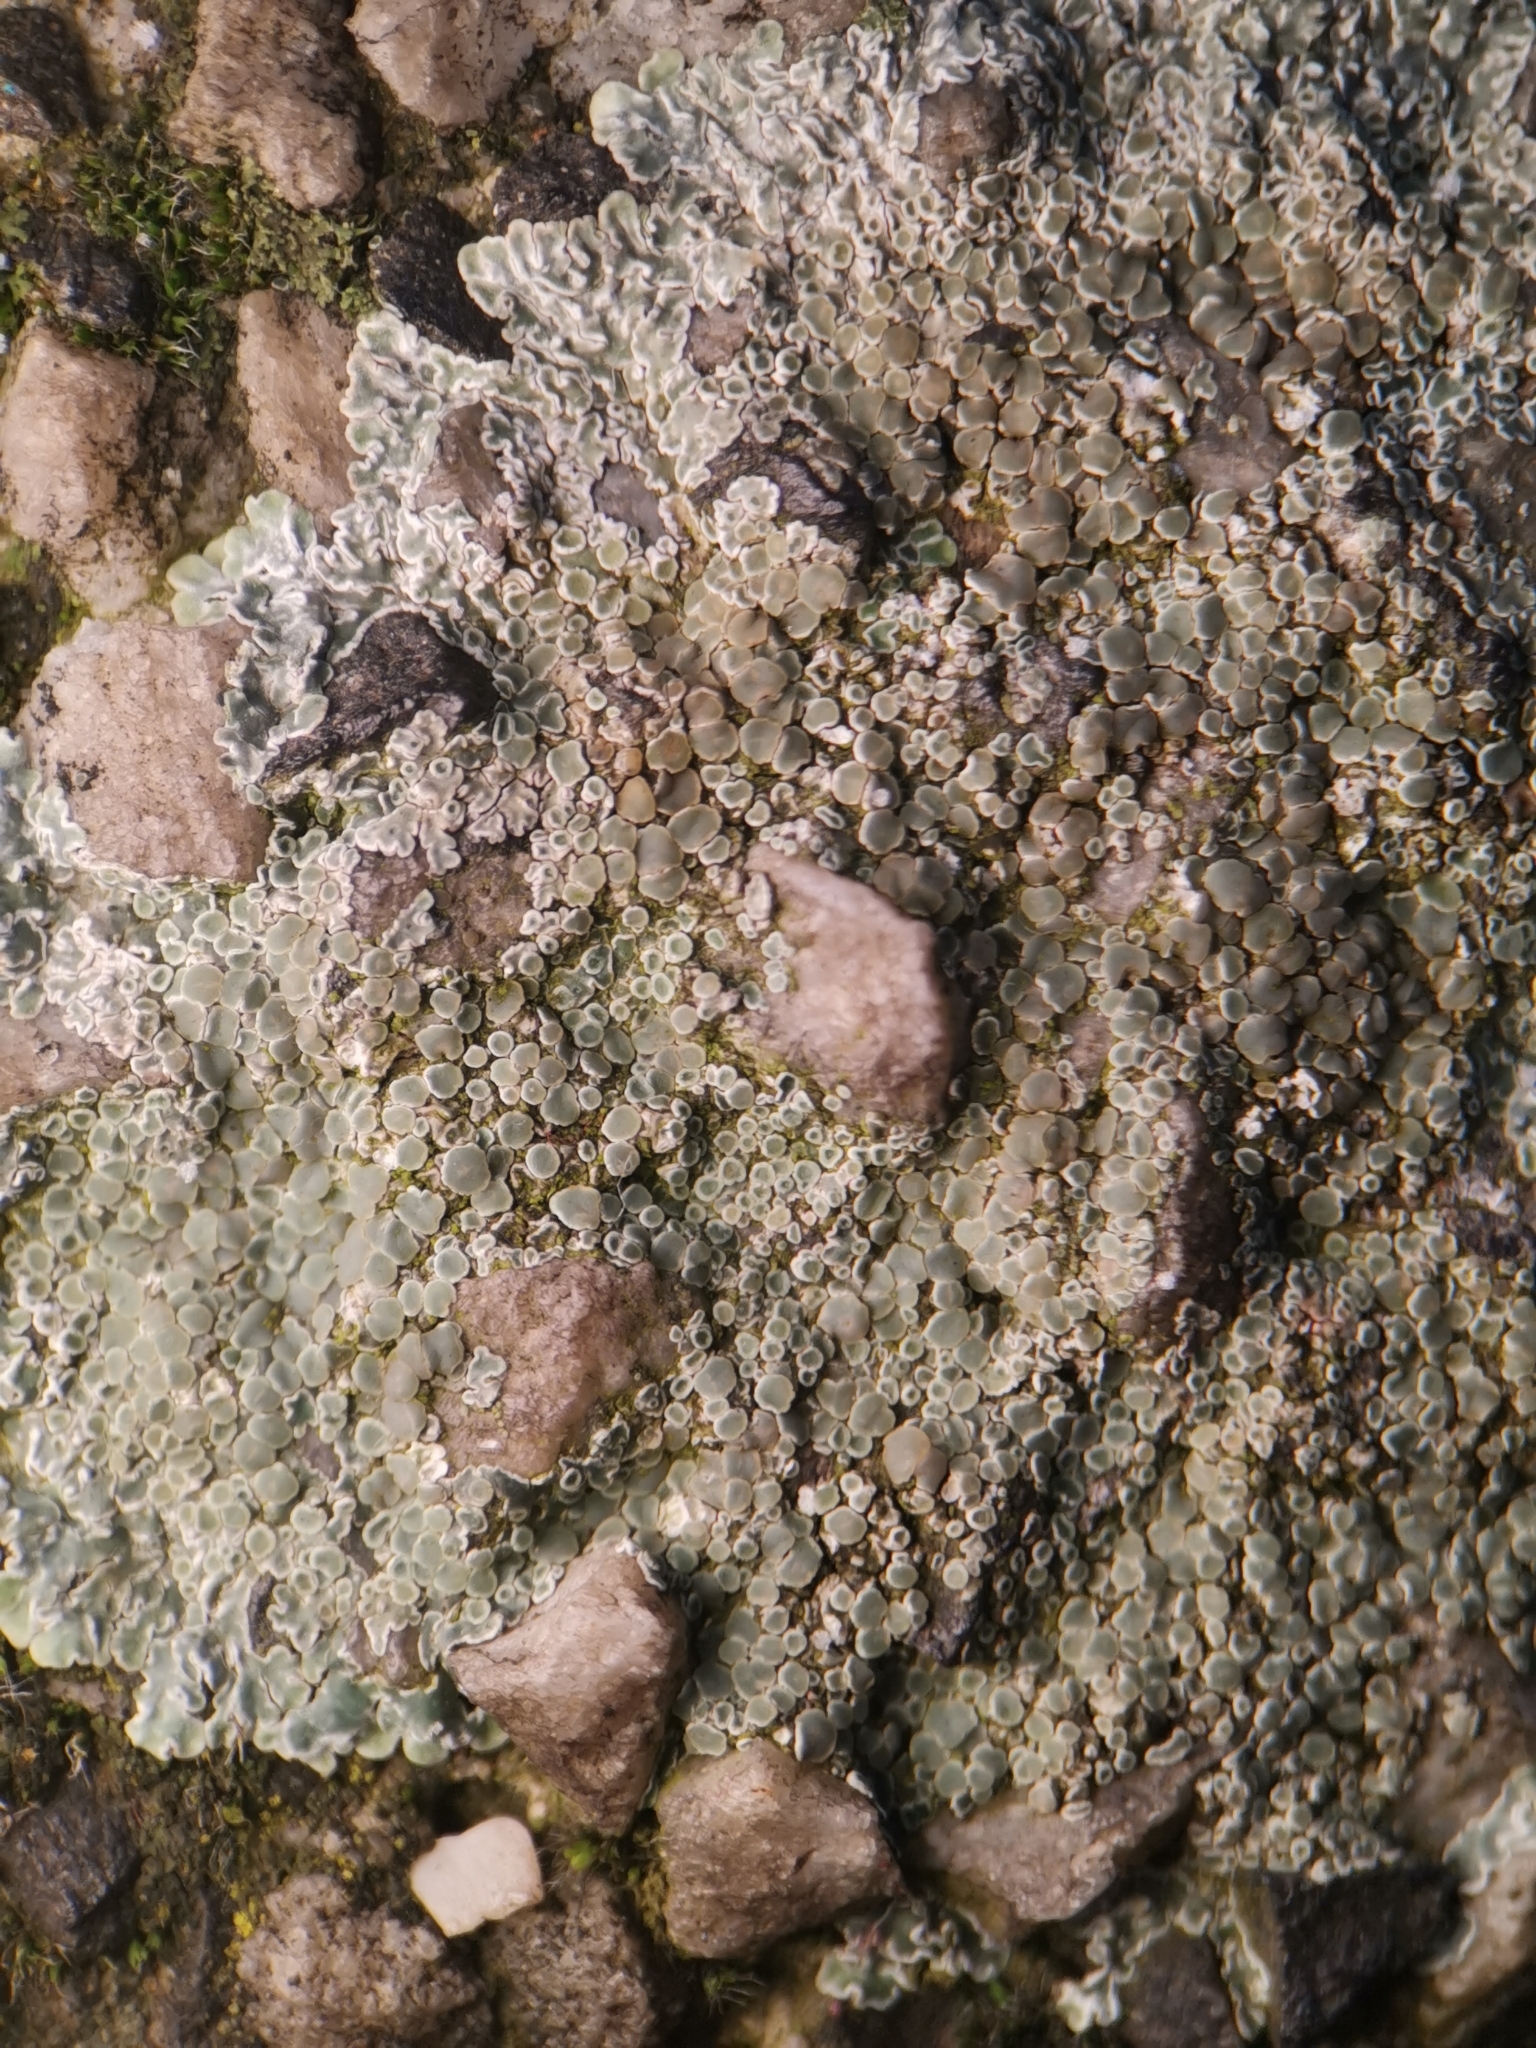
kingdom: Fungi
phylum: Ascomycota
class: Lecanoromycetes
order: Lecanorales
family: Lecanoraceae
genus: Protoparmeliopsis
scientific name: Protoparmeliopsis muralis
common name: Stonewall rim lichen
